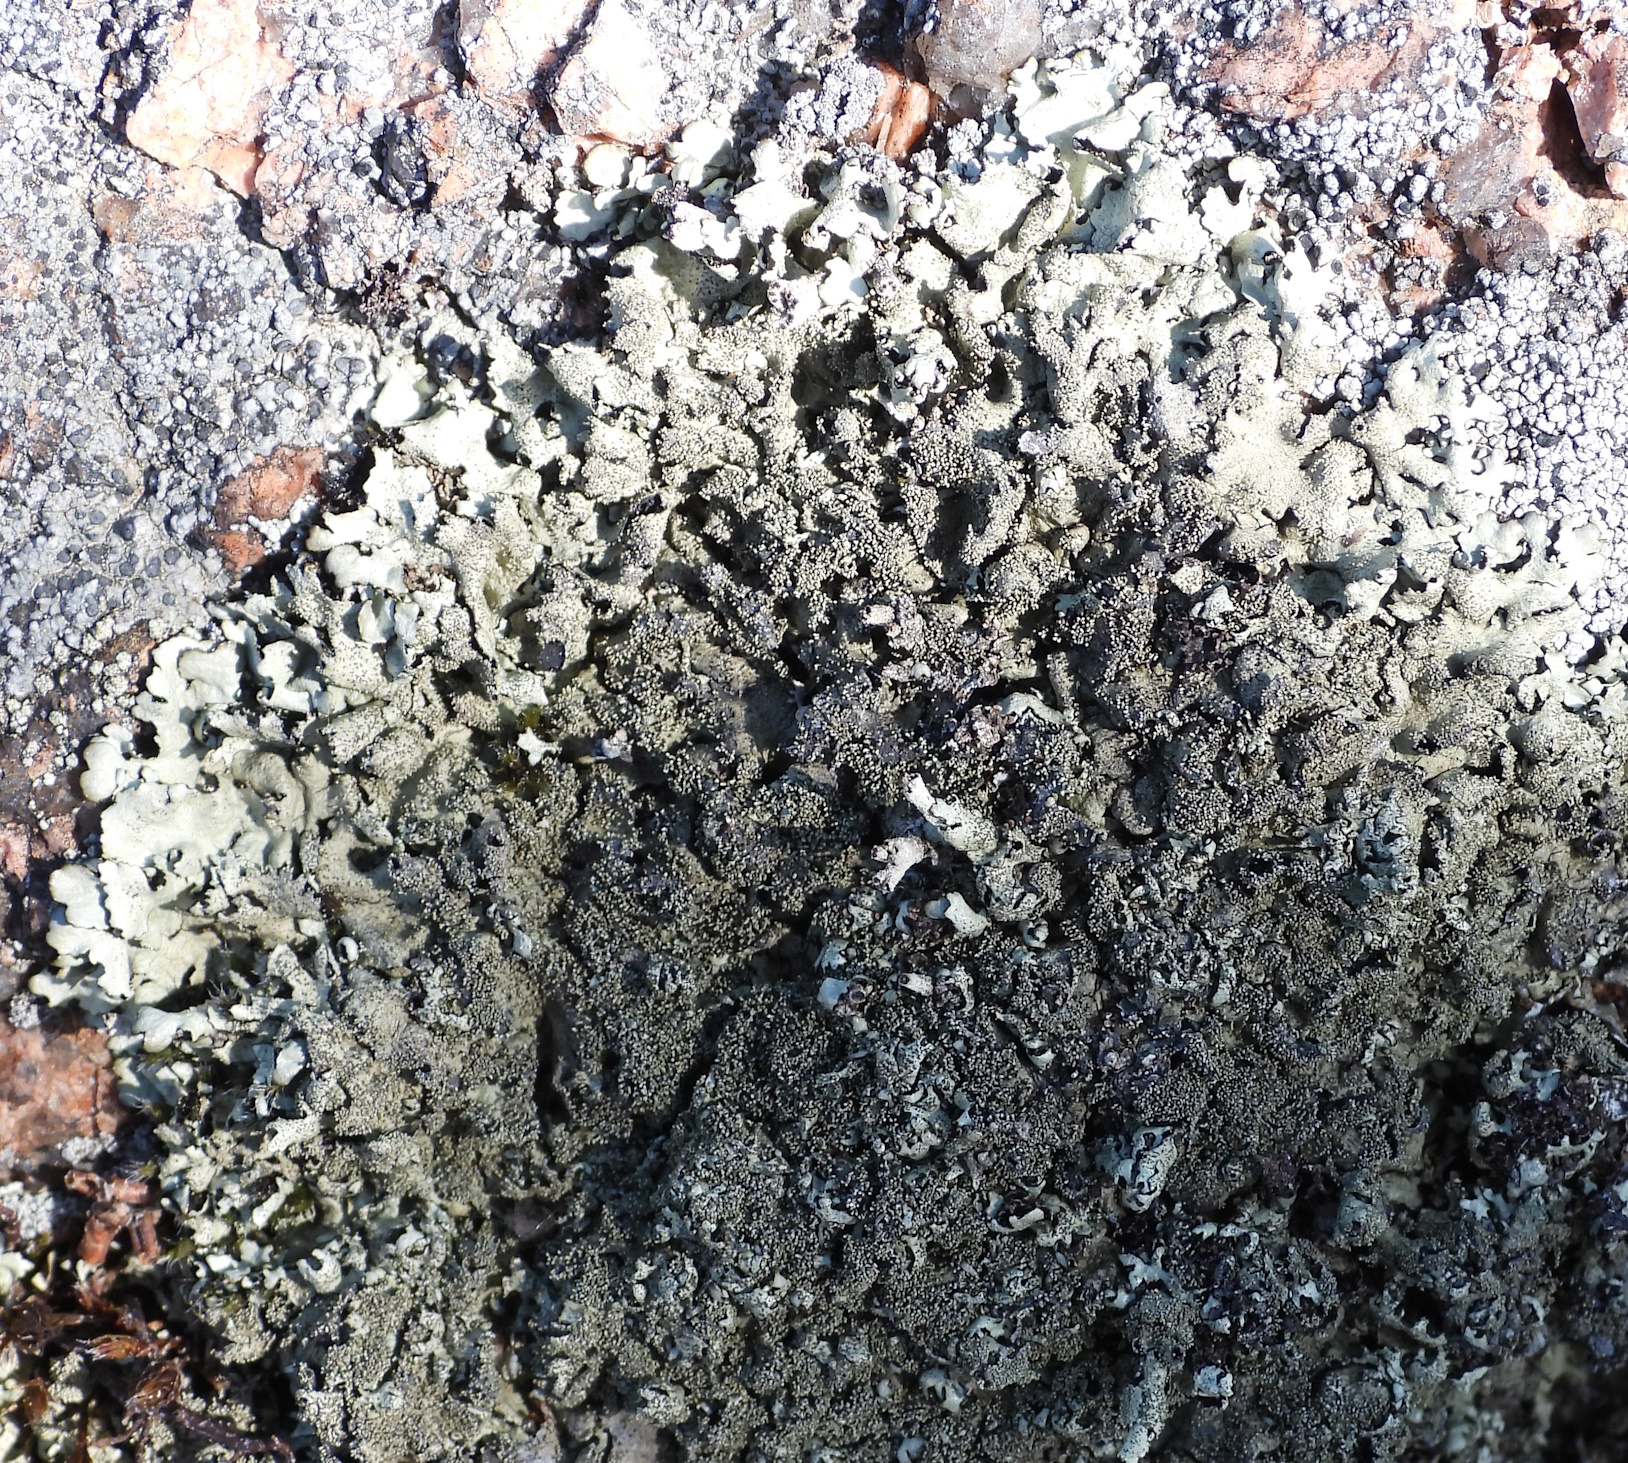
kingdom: Fungi
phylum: Ascomycota
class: Lecanoromycetes
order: Lecanorales
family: Parmeliaceae
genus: Xanthoparmelia
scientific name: Xanthoparmelia conspersa
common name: Peppered rock shield
